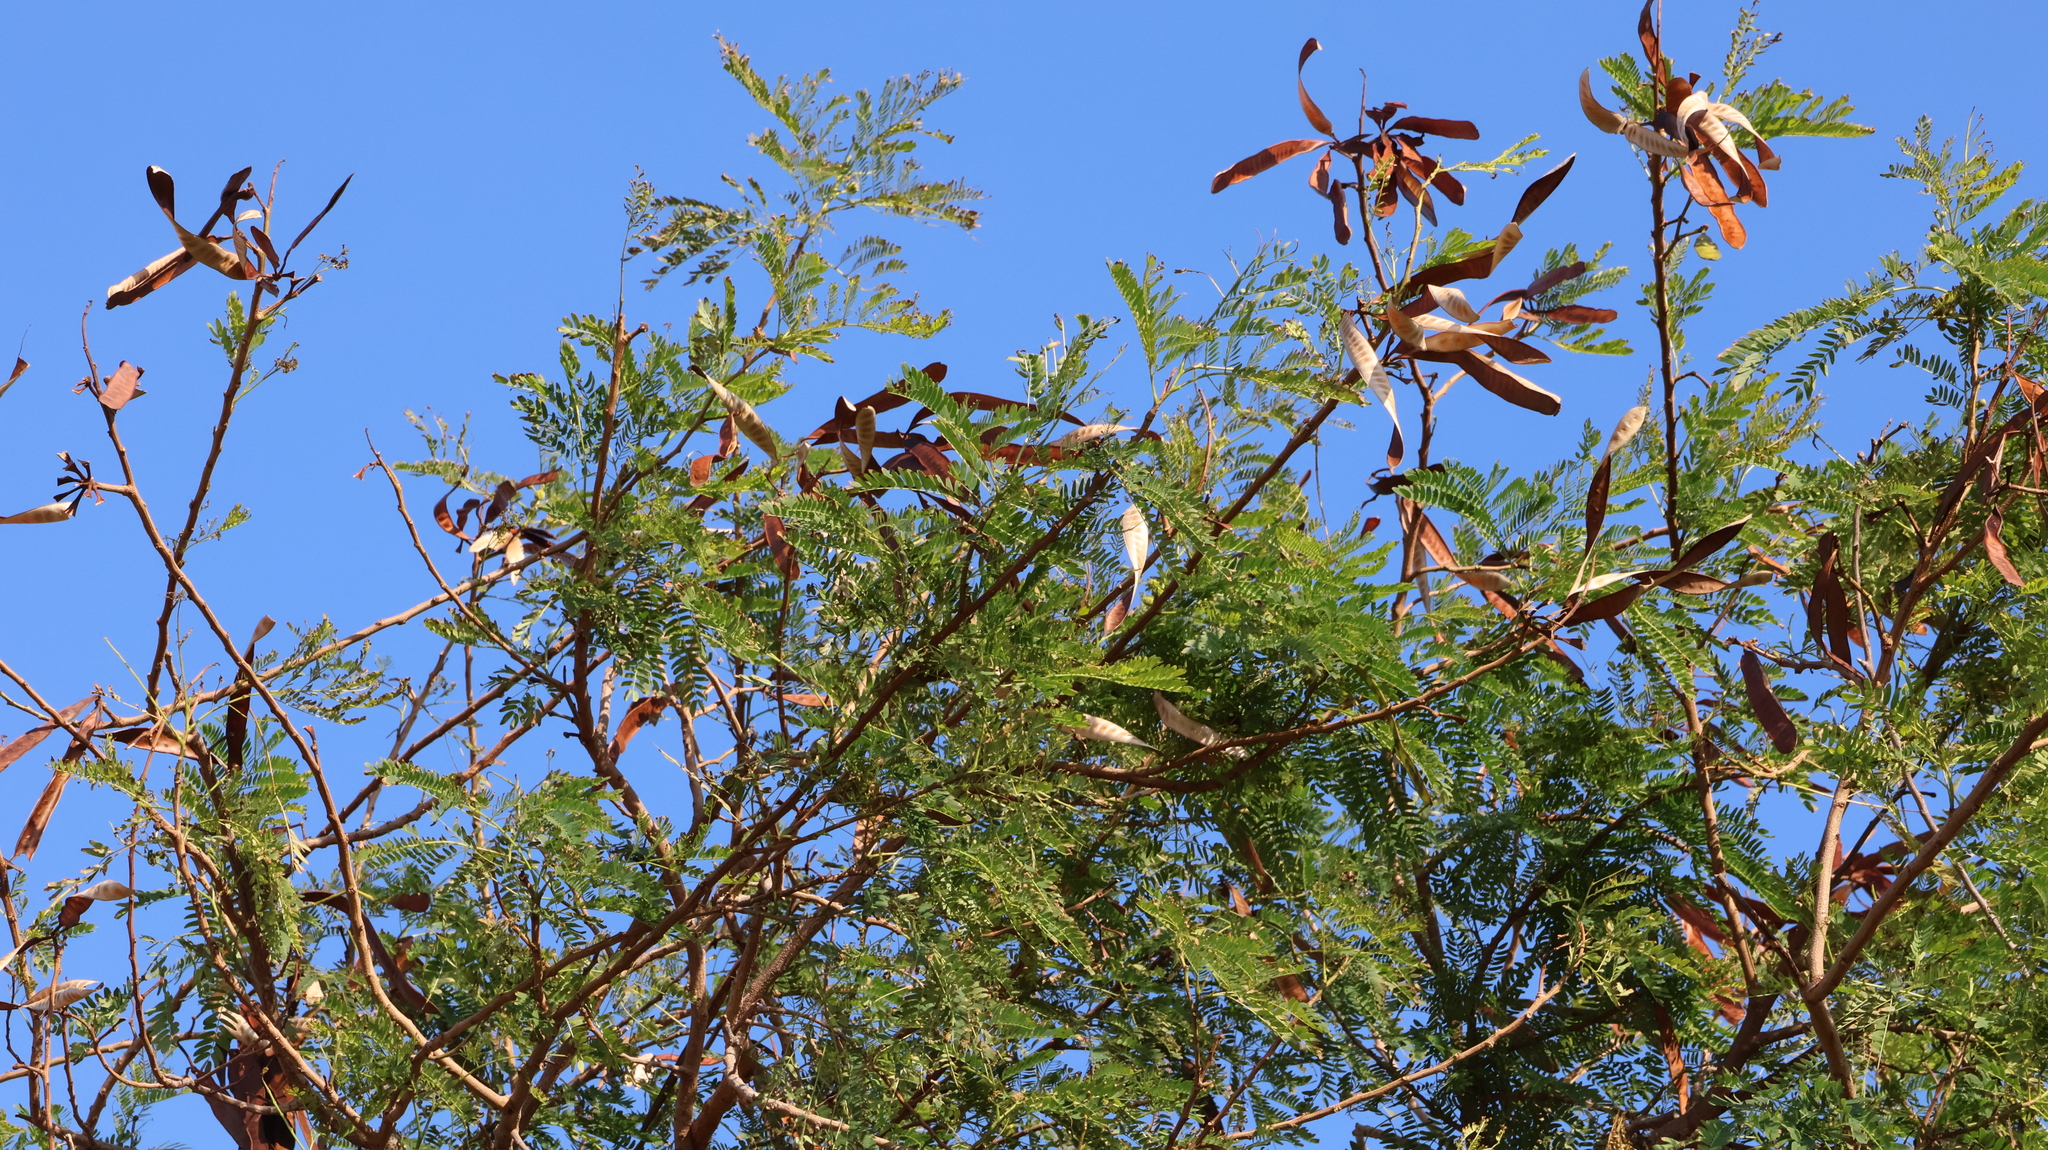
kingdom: Plantae
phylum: Tracheophyta
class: Magnoliopsida
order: Fabales
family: Fabaceae
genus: Leucaena
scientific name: Leucaena leucocephala
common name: White leadtree
